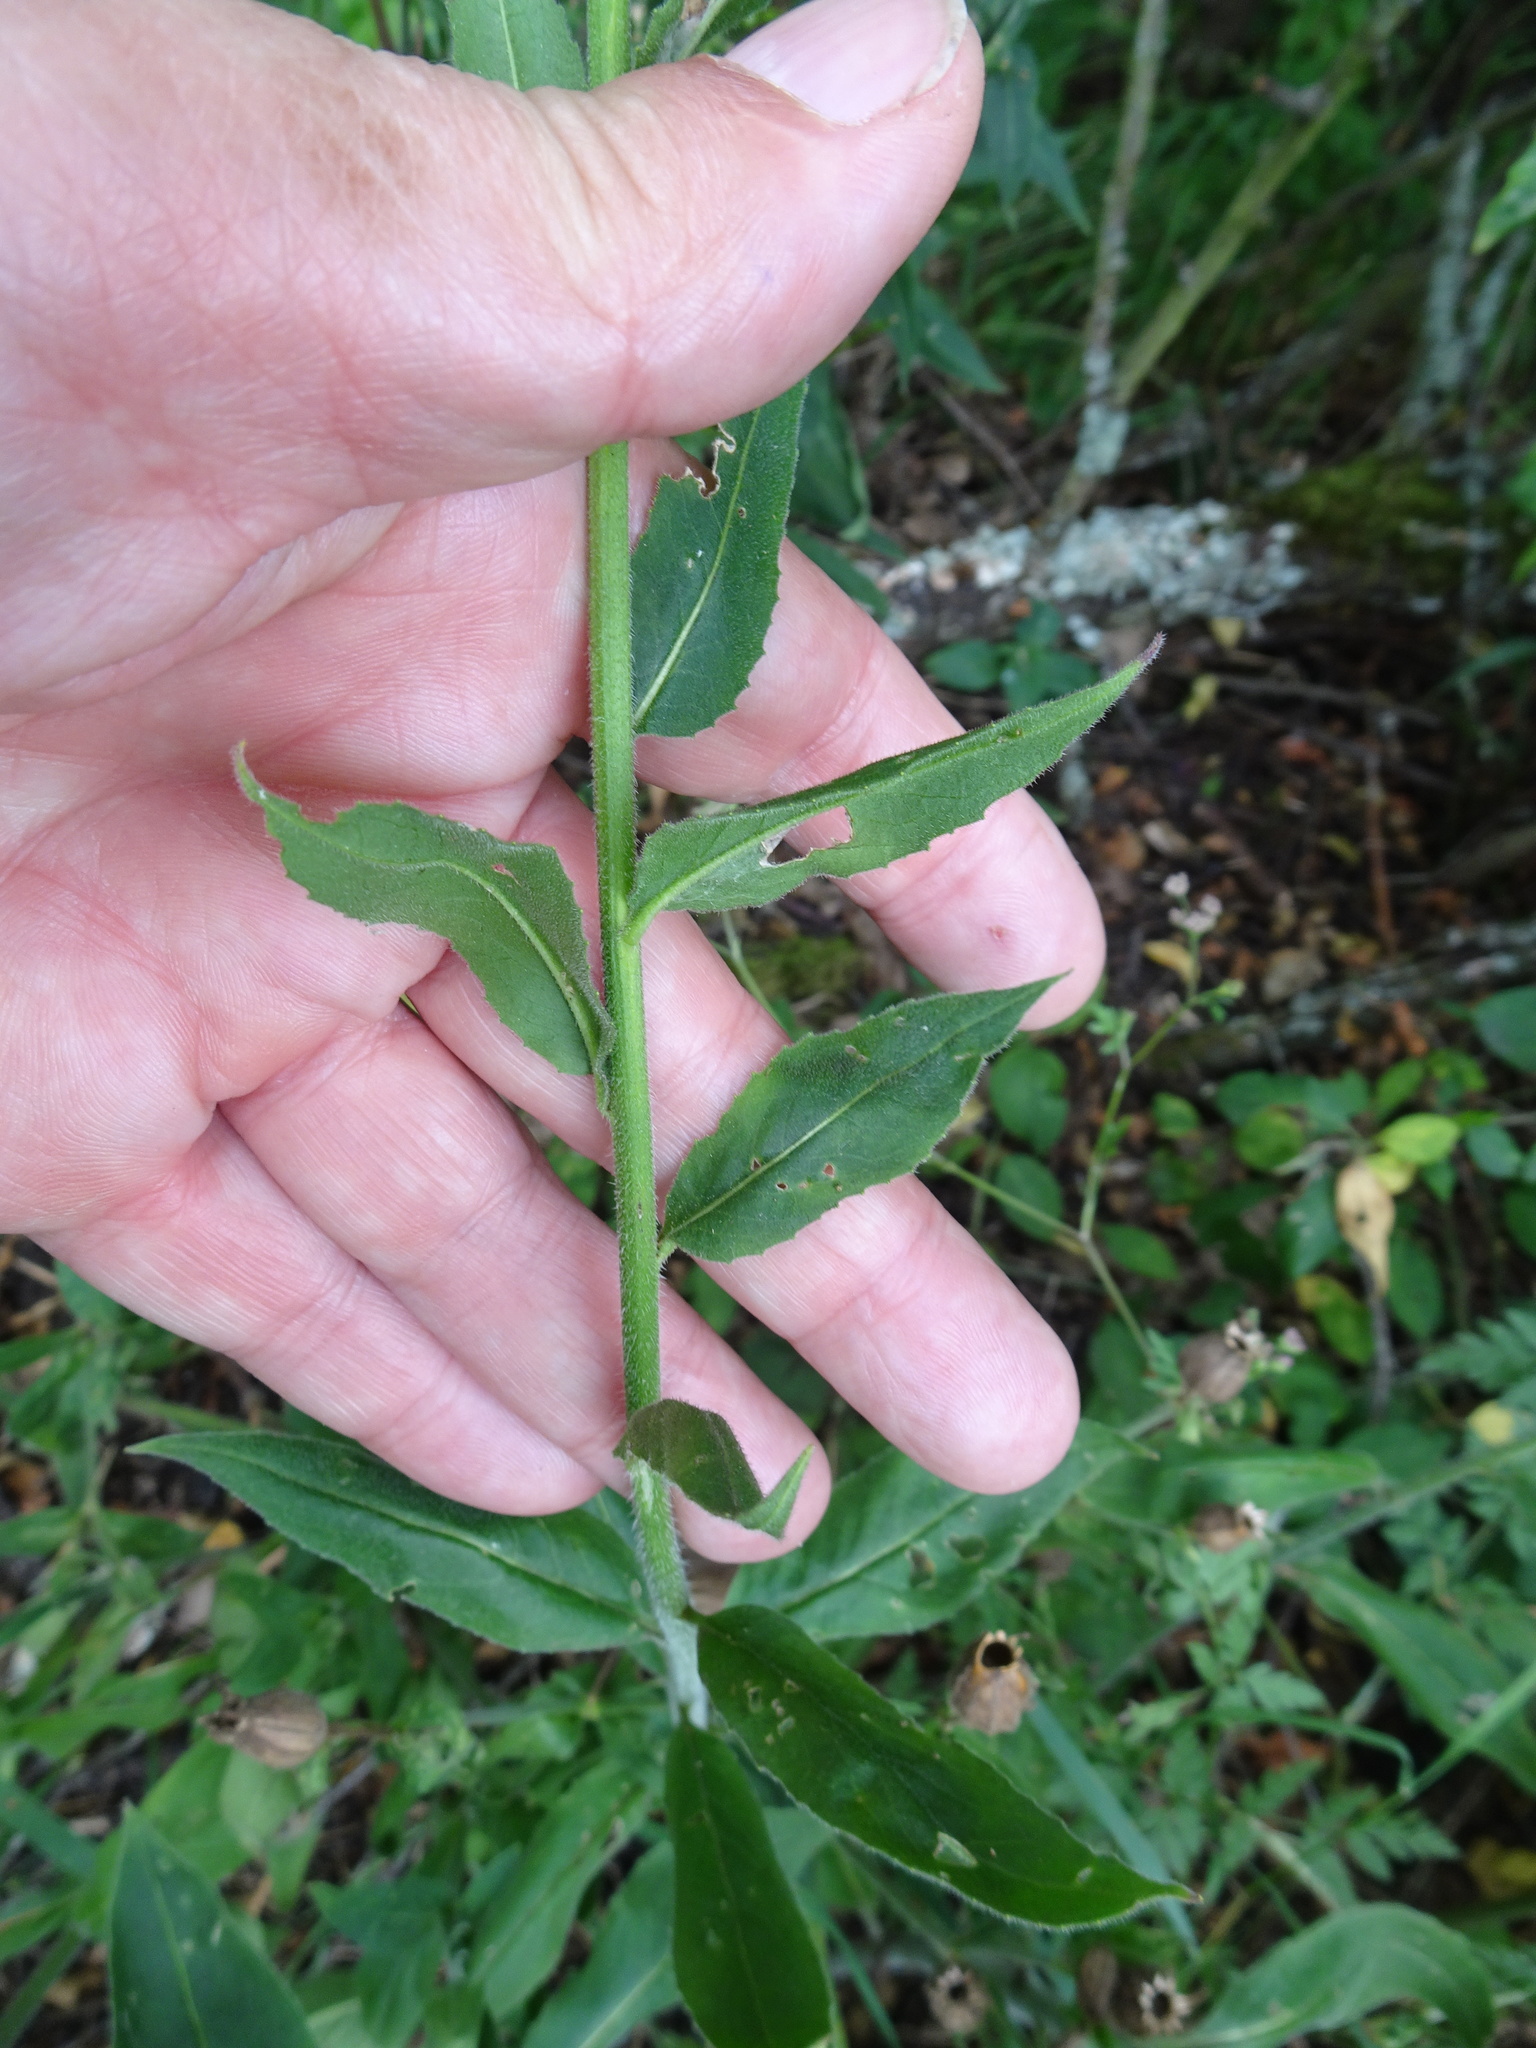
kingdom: Plantae
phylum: Tracheophyta
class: Magnoliopsida
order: Brassicales
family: Brassicaceae
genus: Hesperis
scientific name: Hesperis matronalis
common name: Dame's-violet
